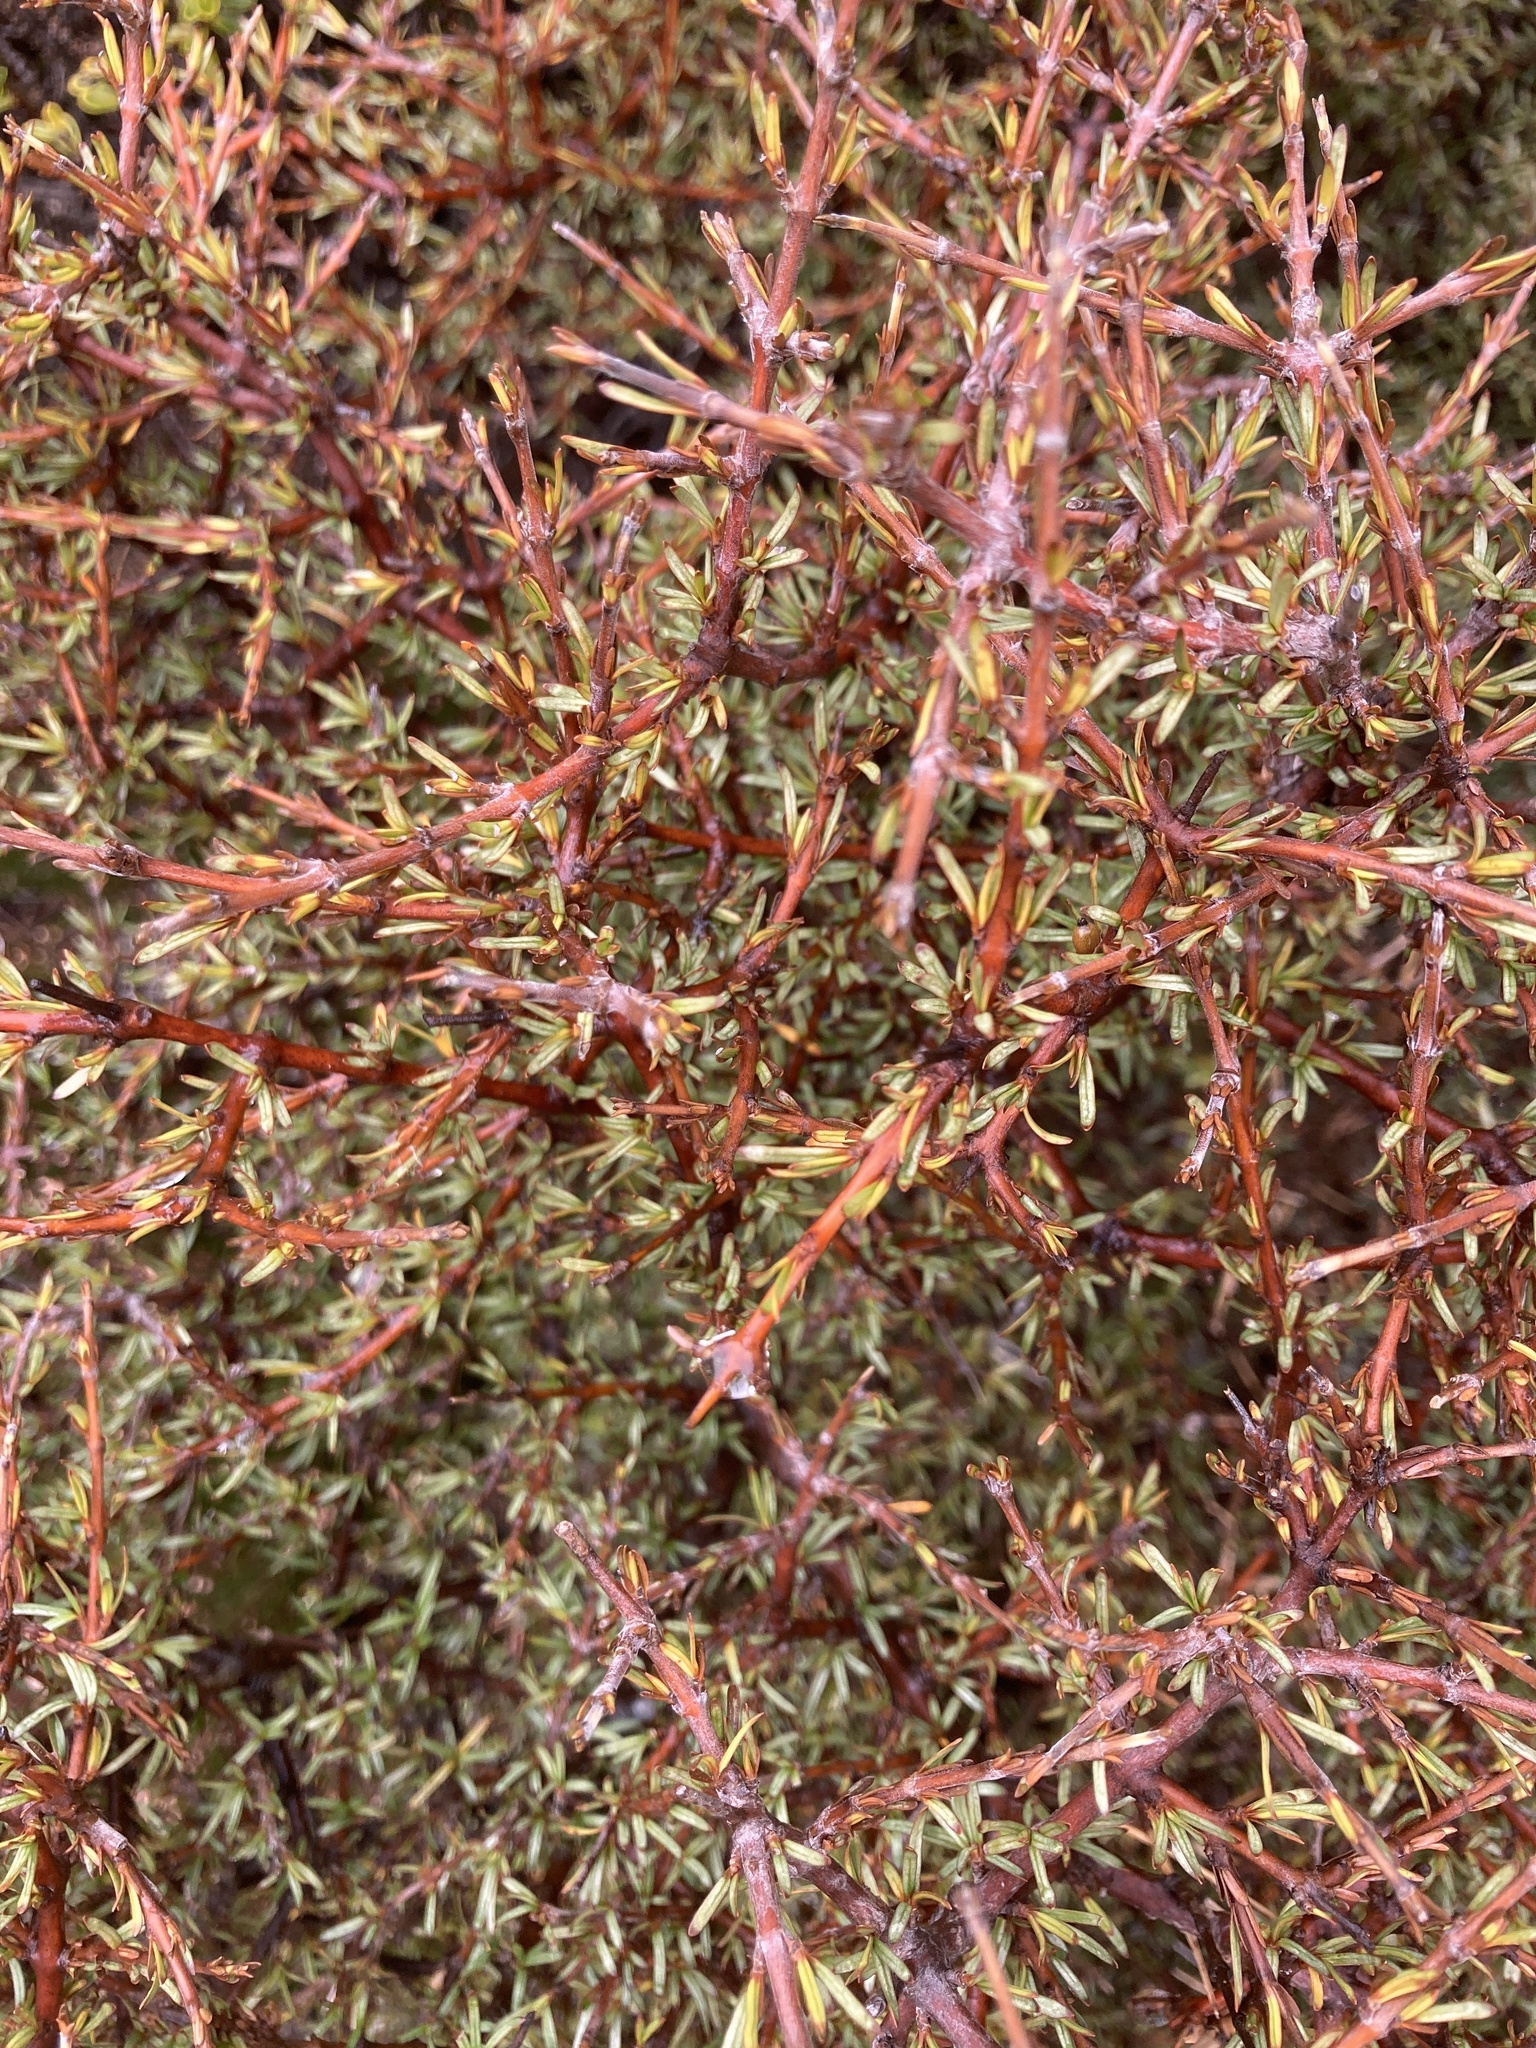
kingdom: Plantae
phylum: Tracheophyta
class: Magnoliopsida
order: Gentianales
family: Rubiaceae
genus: Coprosma
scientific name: Coprosma rugosa
